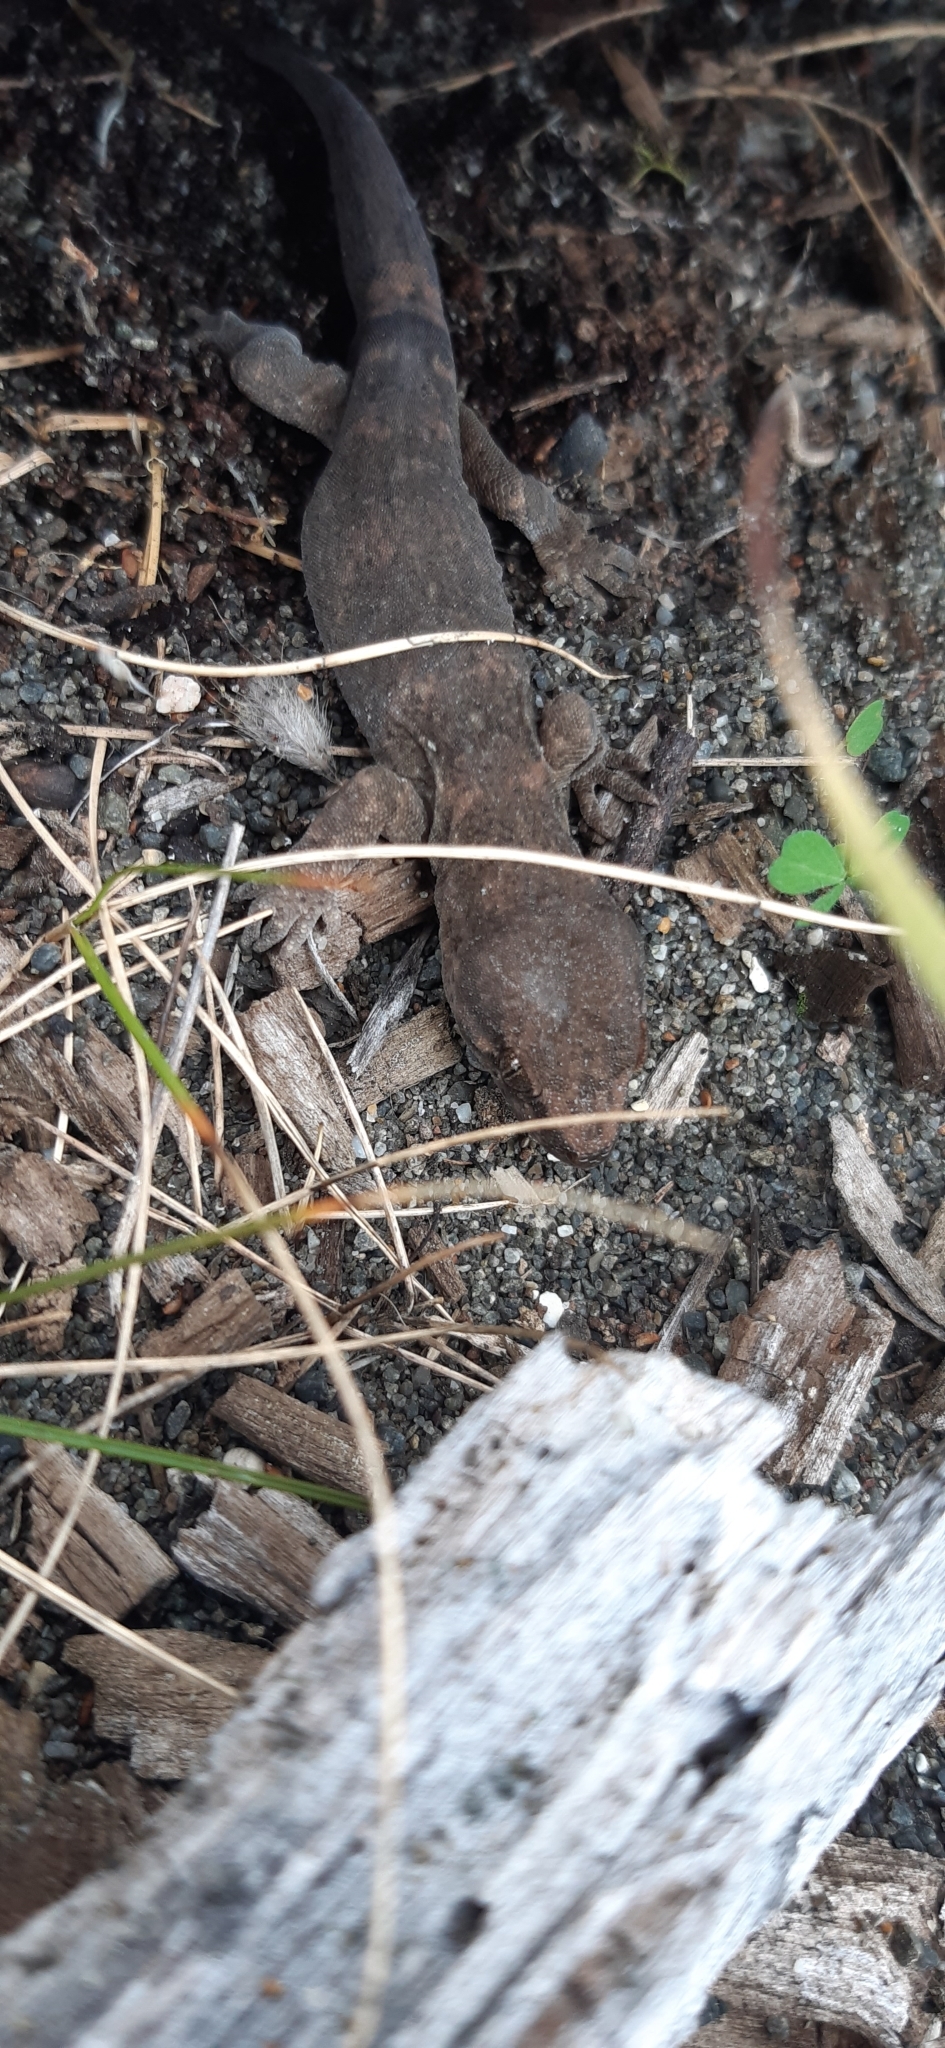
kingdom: Animalia
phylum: Chordata
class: Squamata
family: Diplodactylidae
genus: Woodworthia
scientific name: Woodworthia maculata
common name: Raukawa gecko
